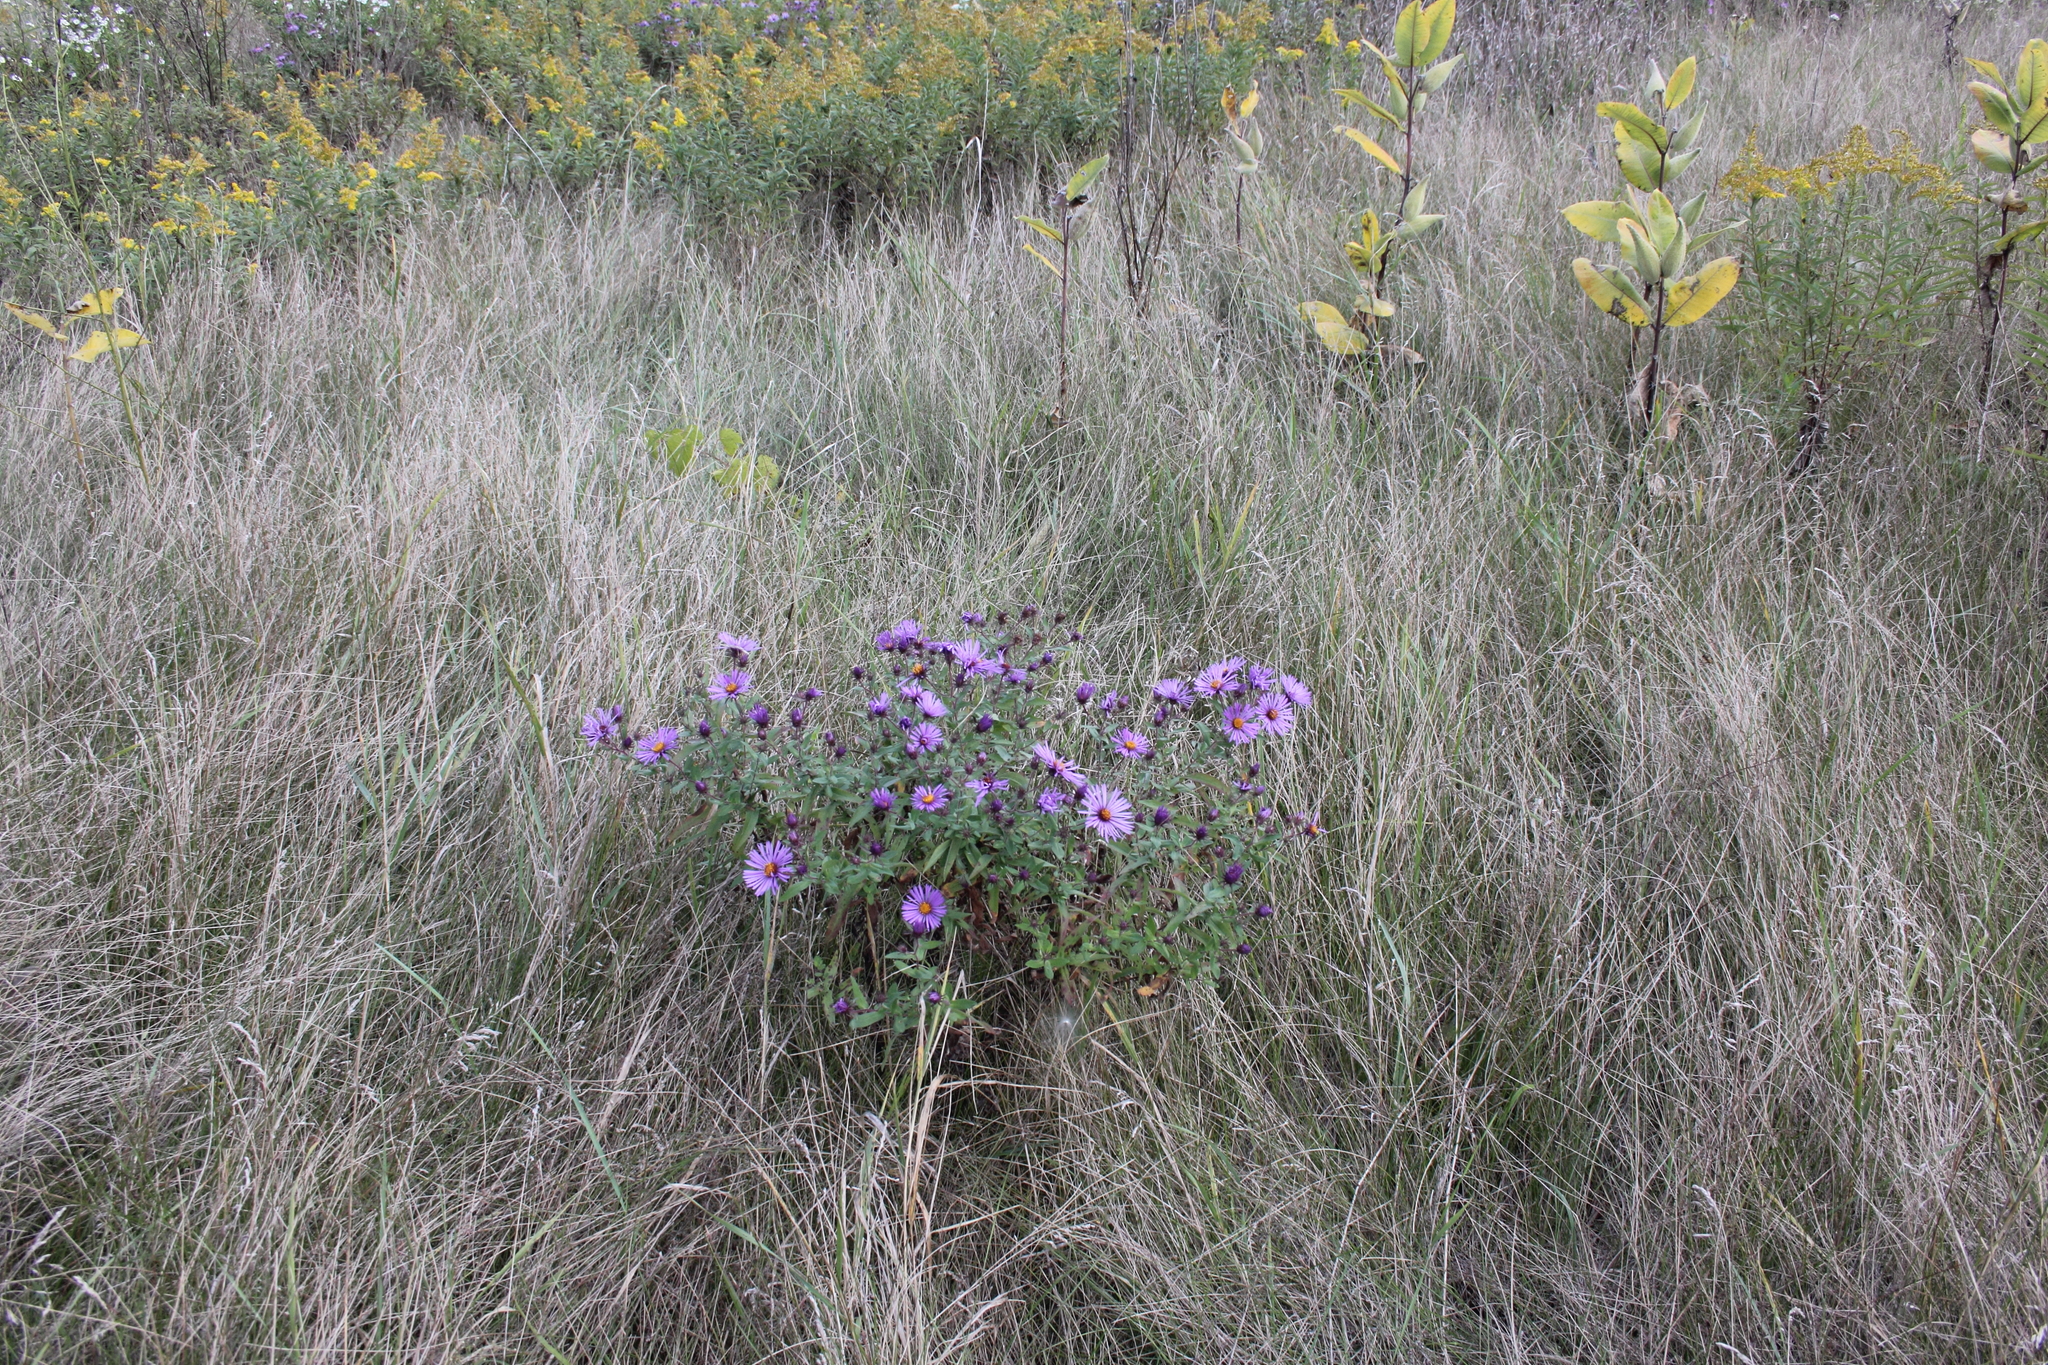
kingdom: Plantae
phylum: Tracheophyta
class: Magnoliopsida
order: Asterales
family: Asteraceae
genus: Symphyotrichum
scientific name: Symphyotrichum novae-angliae
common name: Michaelmas daisy
